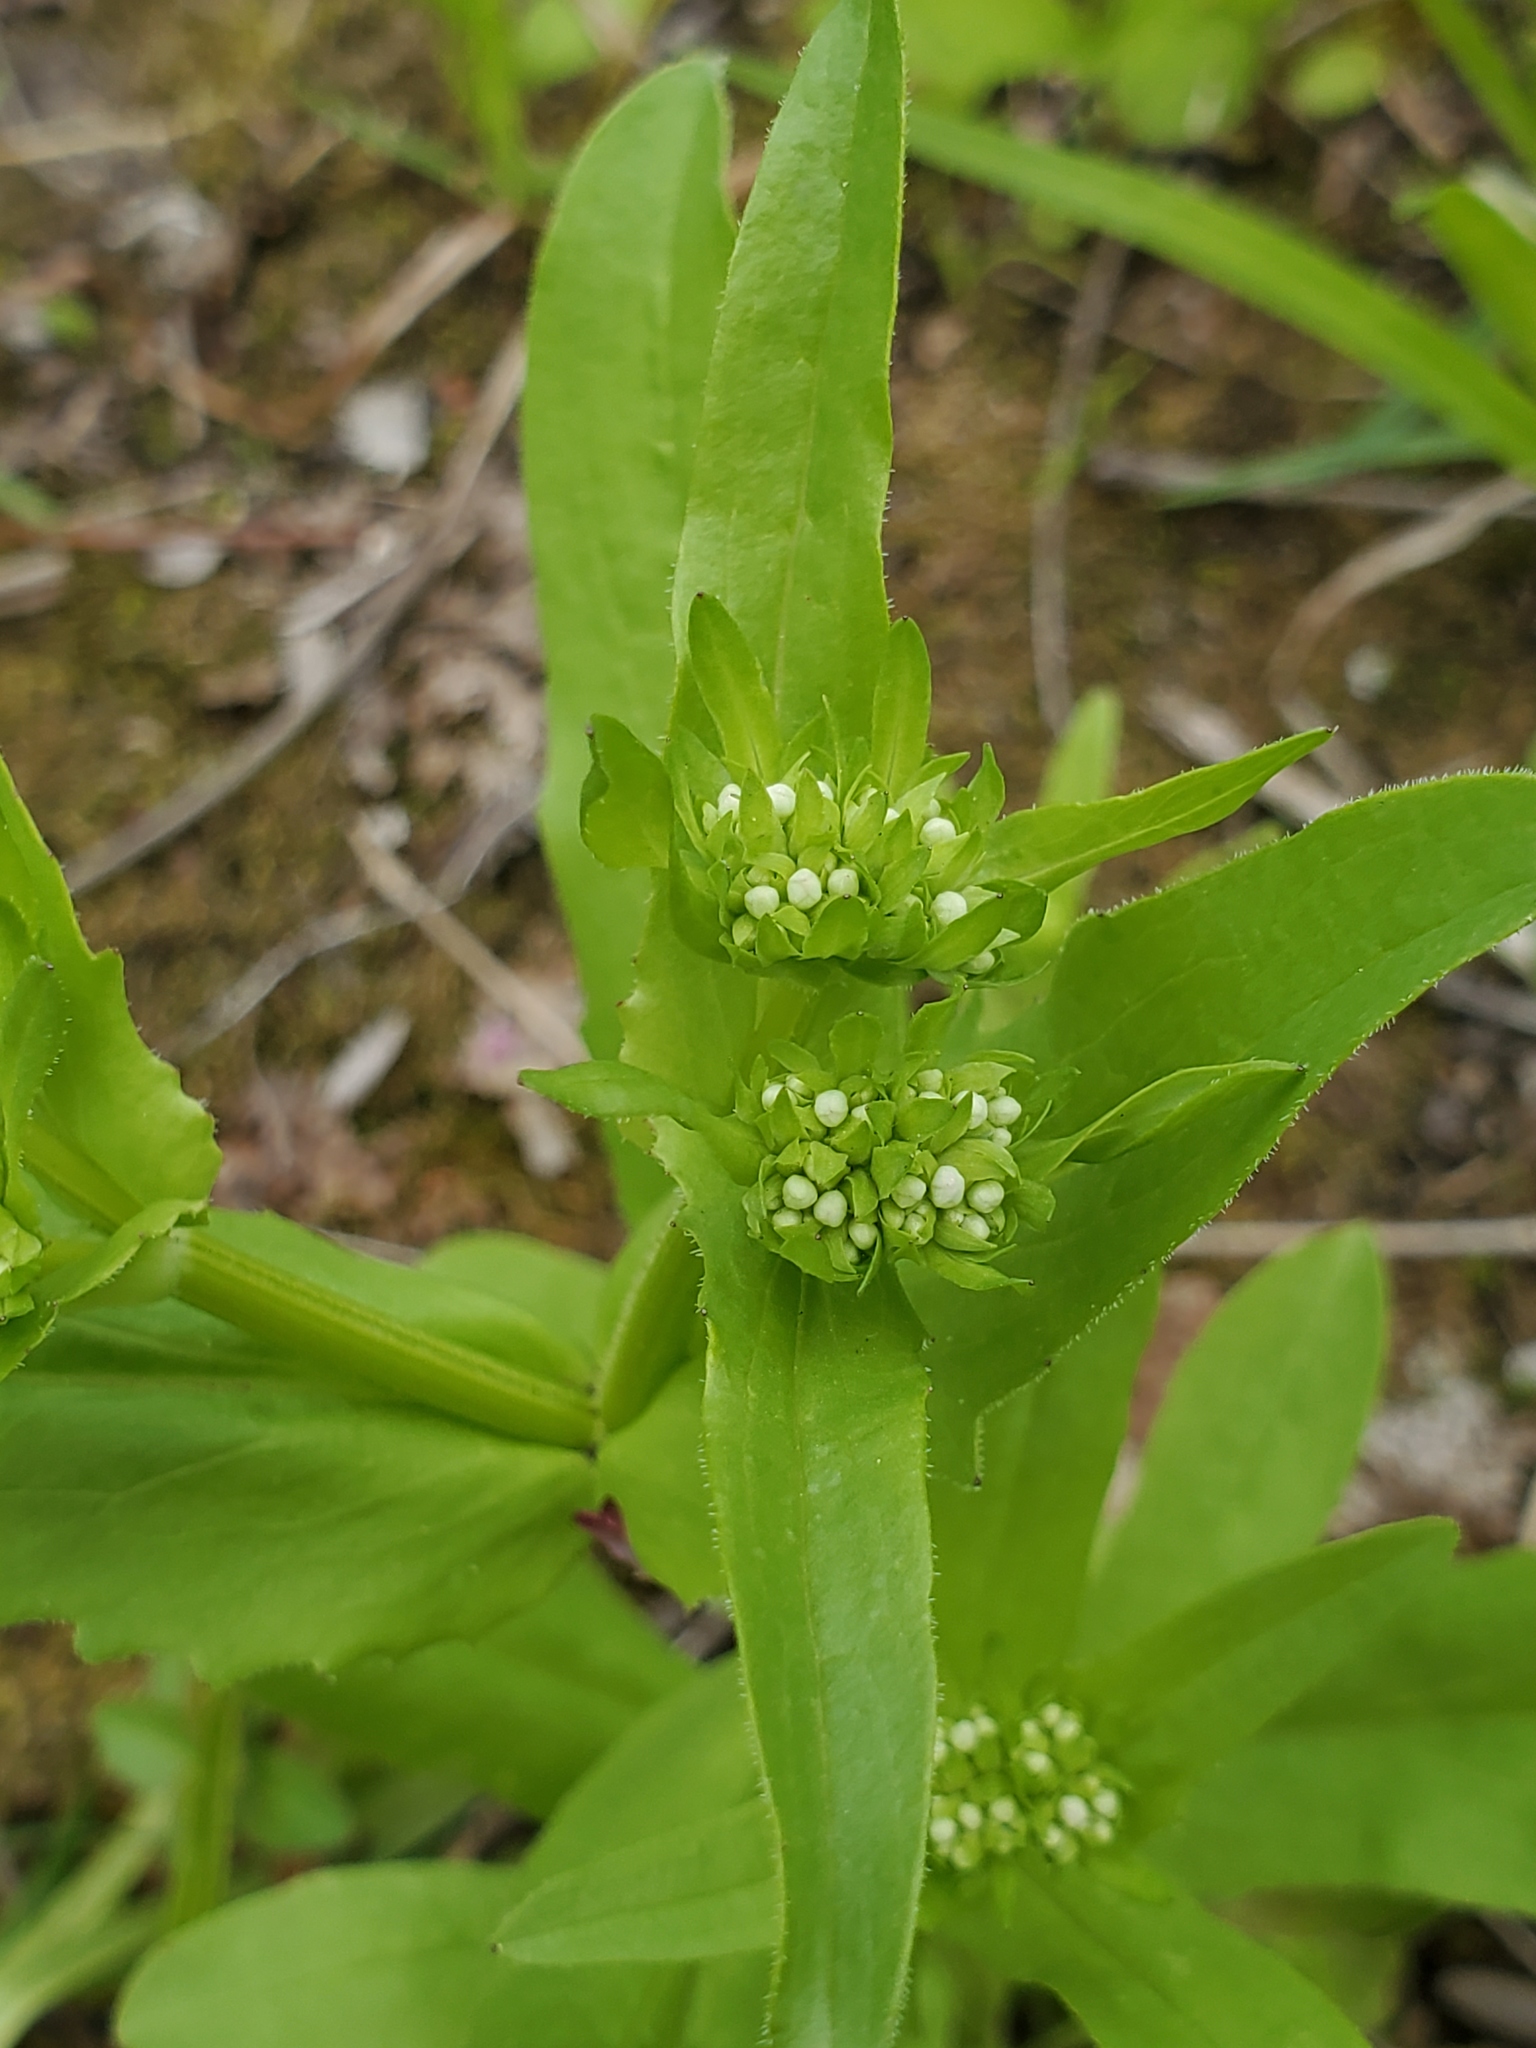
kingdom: Plantae
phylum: Tracheophyta
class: Magnoliopsida
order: Dipsacales
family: Caprifoliaceae
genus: Valerianella
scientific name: Valerianella umbilicata
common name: Wood's cornsalad
